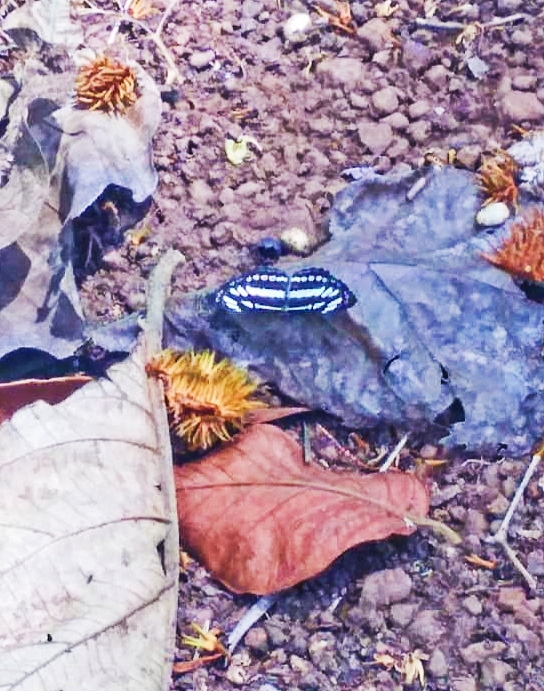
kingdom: Animalia
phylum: Arthropoda
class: Insecta
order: Lepidoptera
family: Nymphalidae
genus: Neptis
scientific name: Neptis hylas
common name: Common sailer
